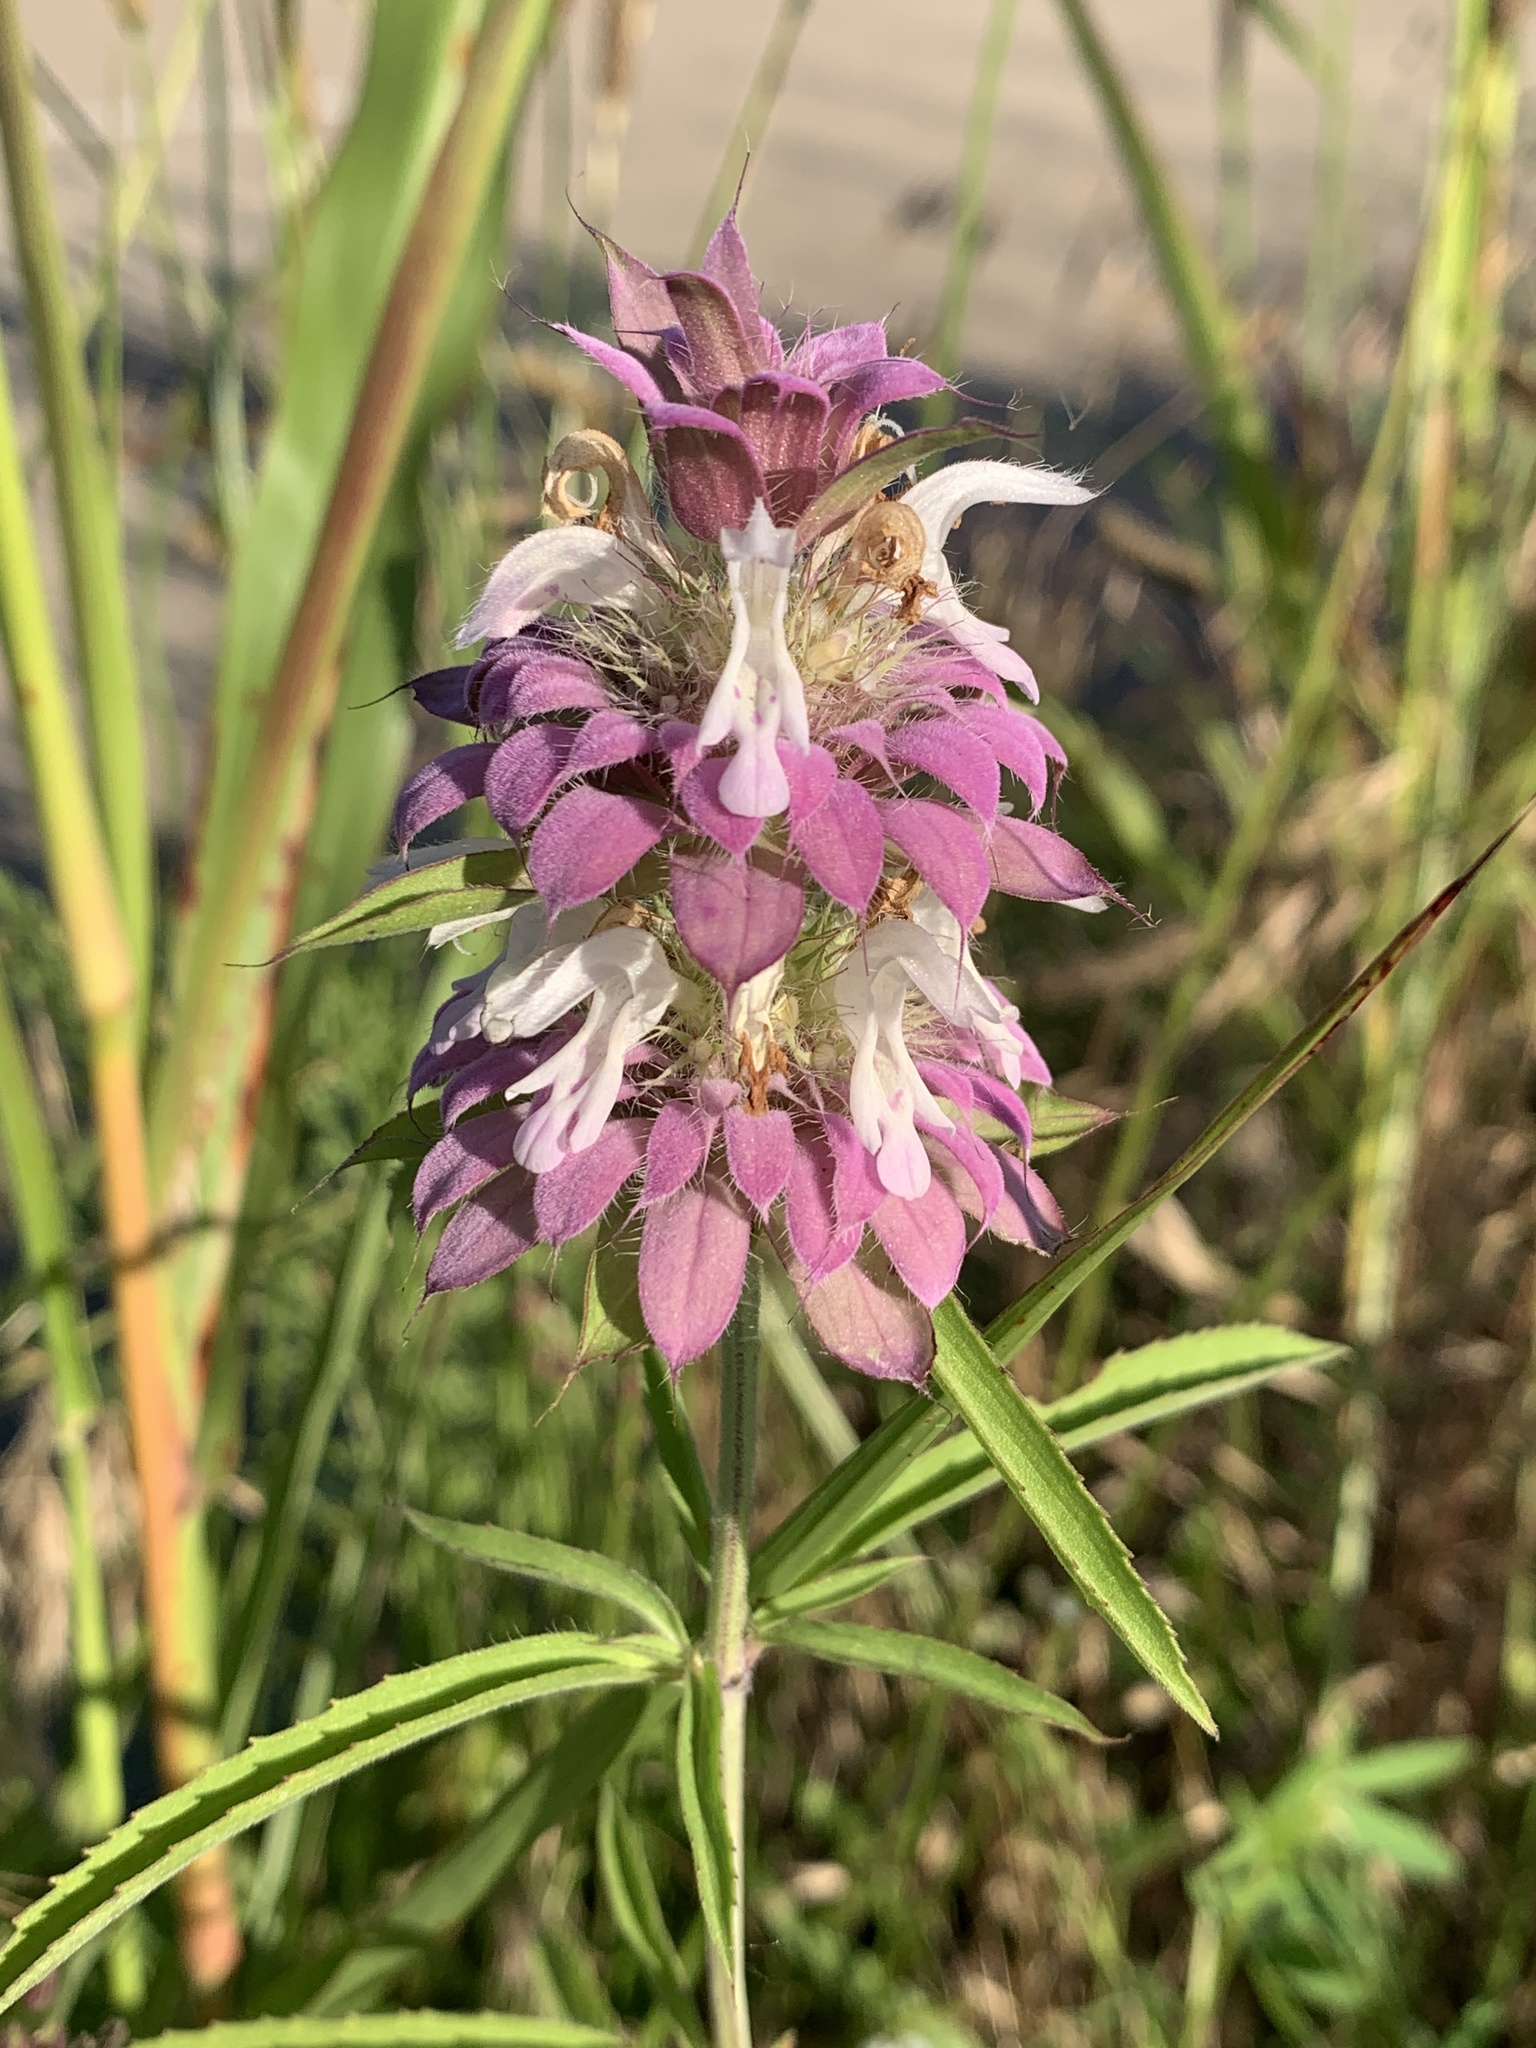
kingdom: Plantae
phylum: Tracheophyta
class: Magnoliopsida
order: Lamiales
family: Lamiaceae
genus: Monarda
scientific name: Monarda citriodora
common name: Lemon beebalm
